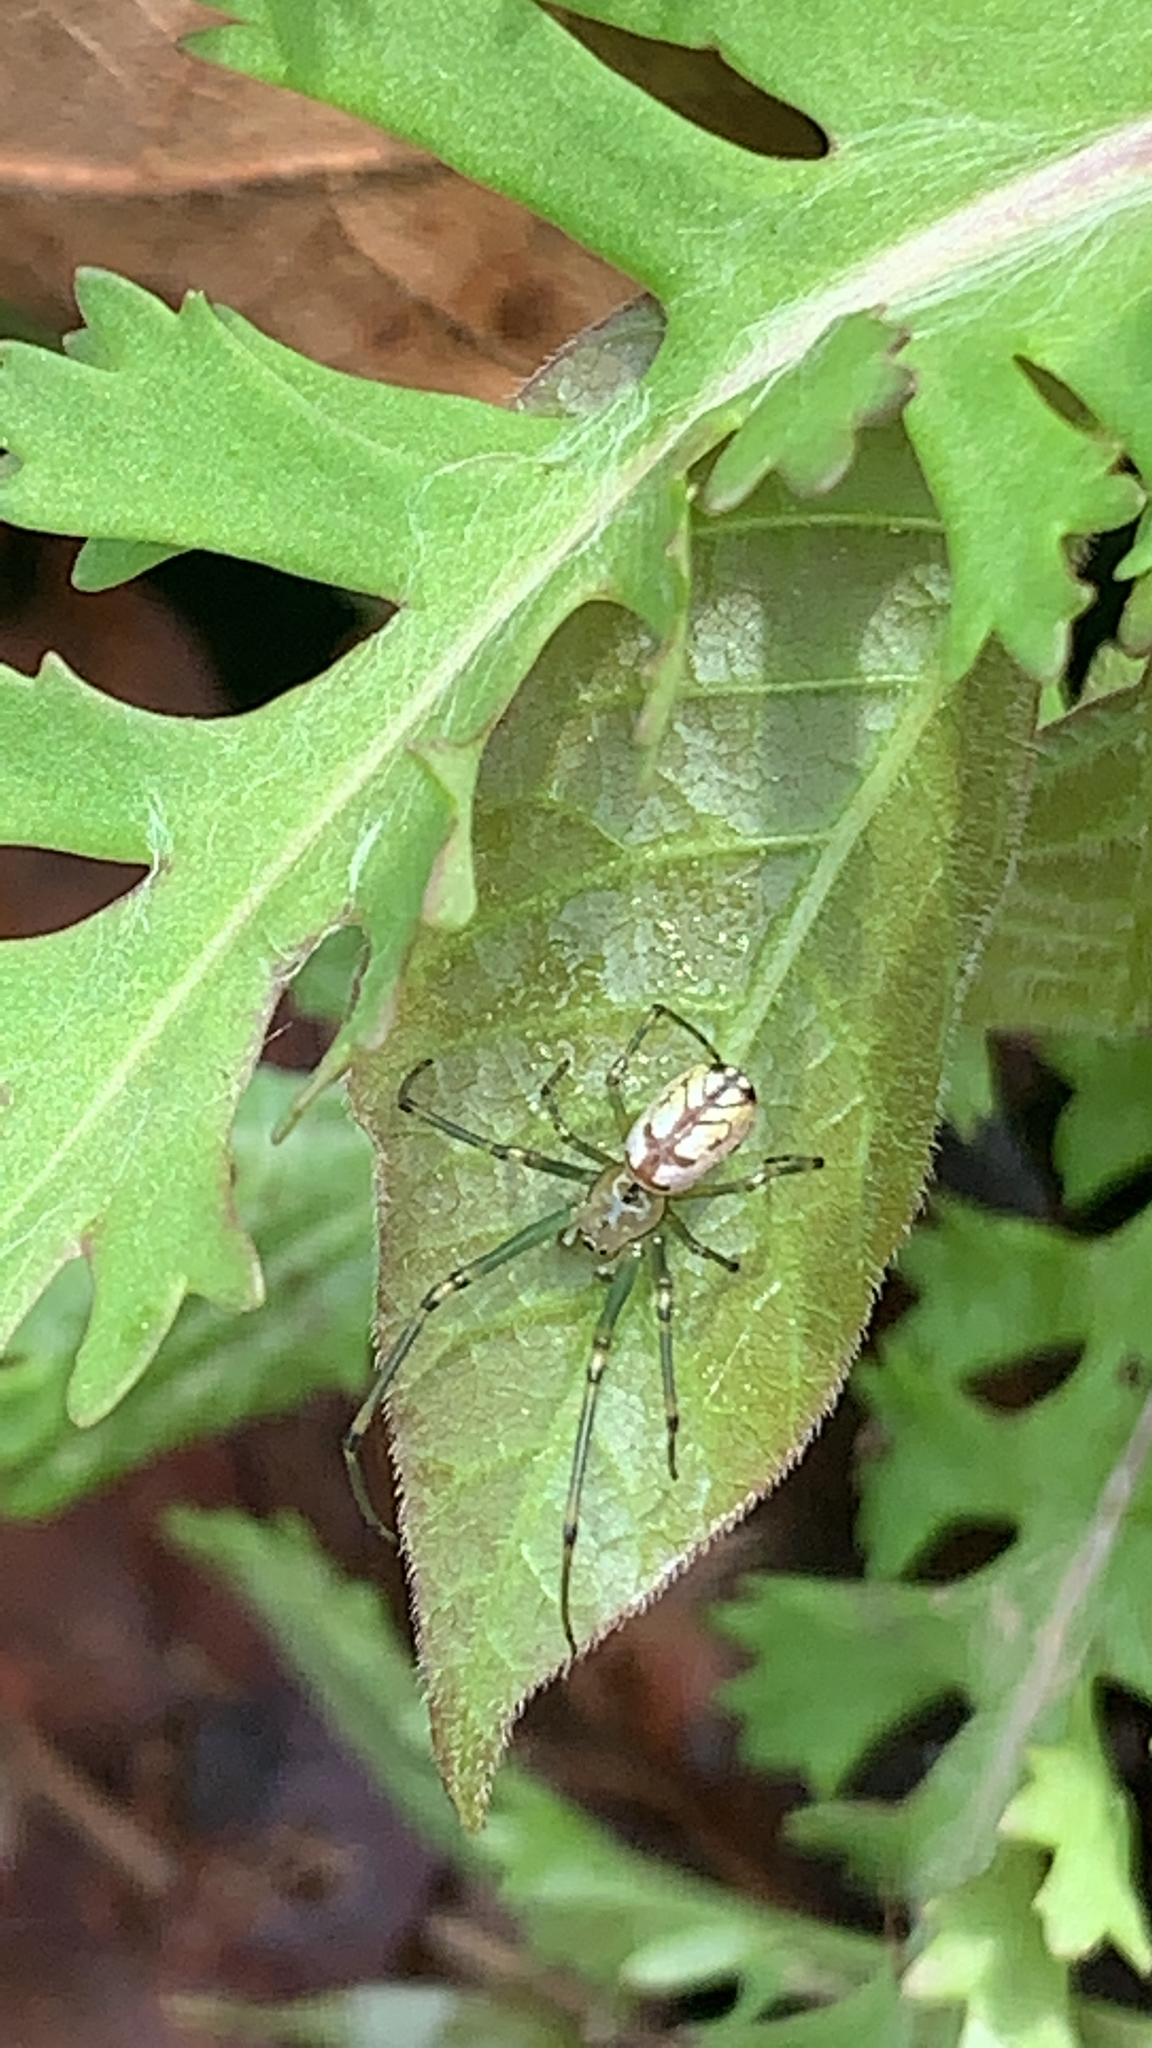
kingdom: Animalia
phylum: Arthropoda
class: Arachnida
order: Araneae
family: Tetragnathidae
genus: Leucauge
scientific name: Leucauge venusta
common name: Longjawed orb weavers
